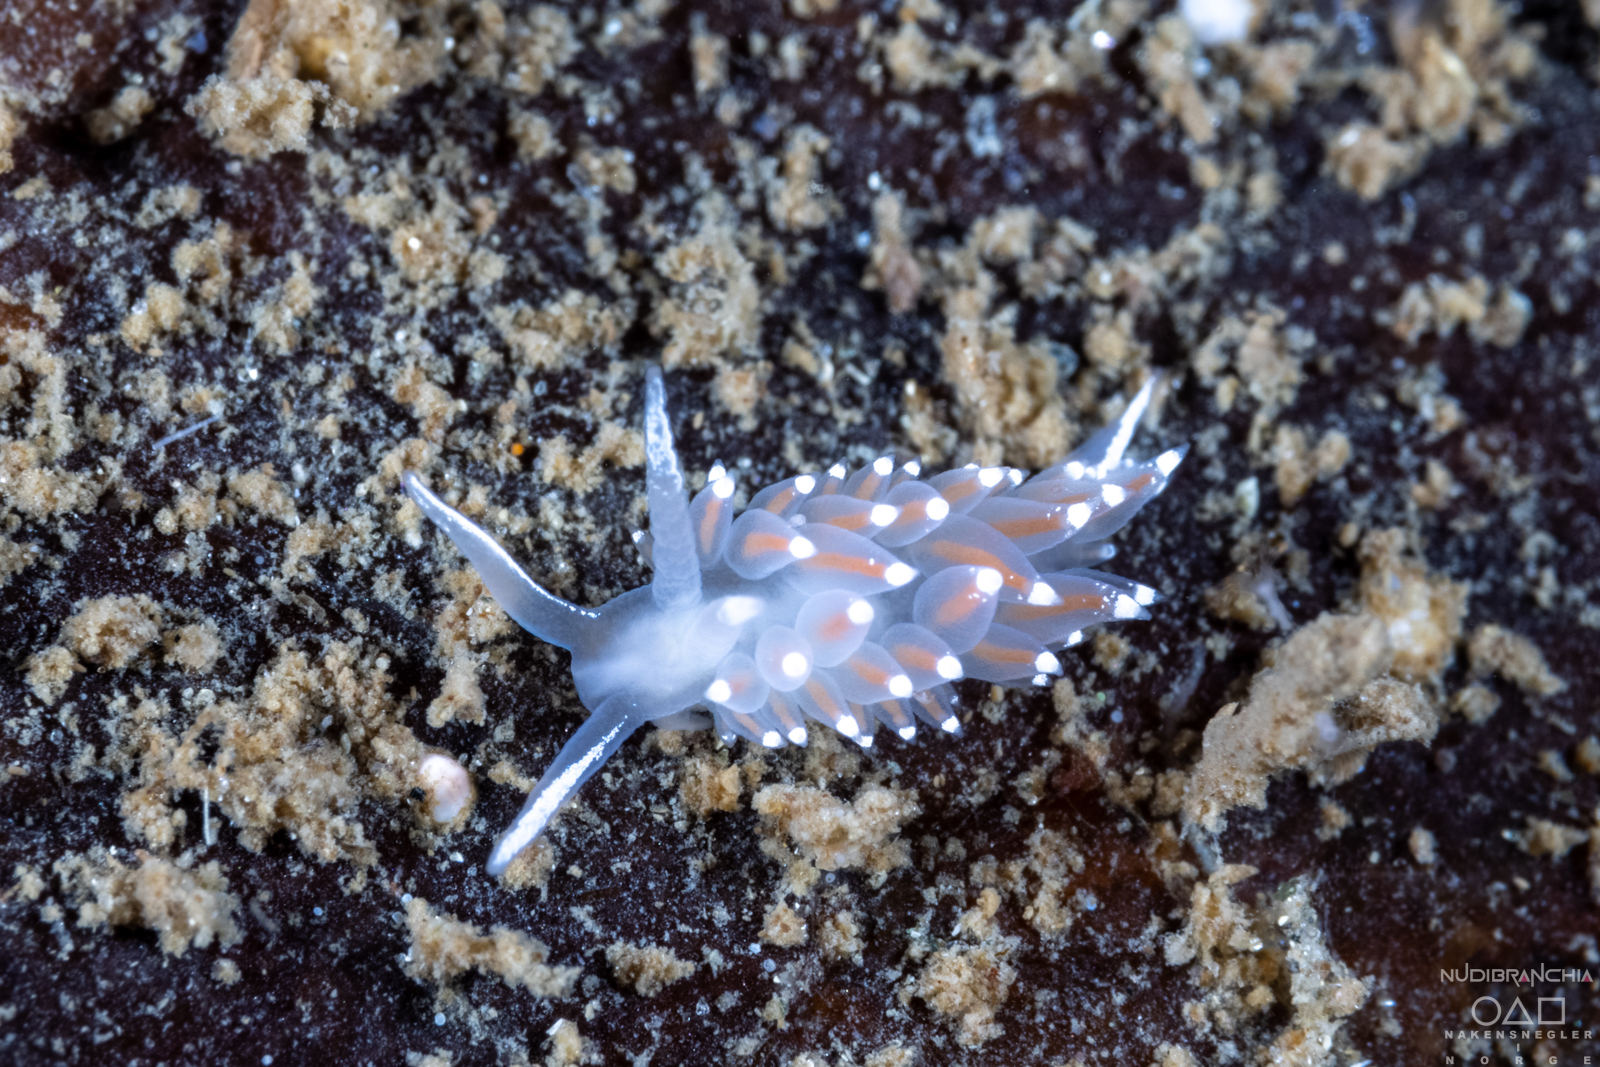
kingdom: Animalia
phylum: Mollusca
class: Gastropoda
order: Nudibranchia
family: Coryphellidae
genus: Coryphella
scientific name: Coryphella monicae
